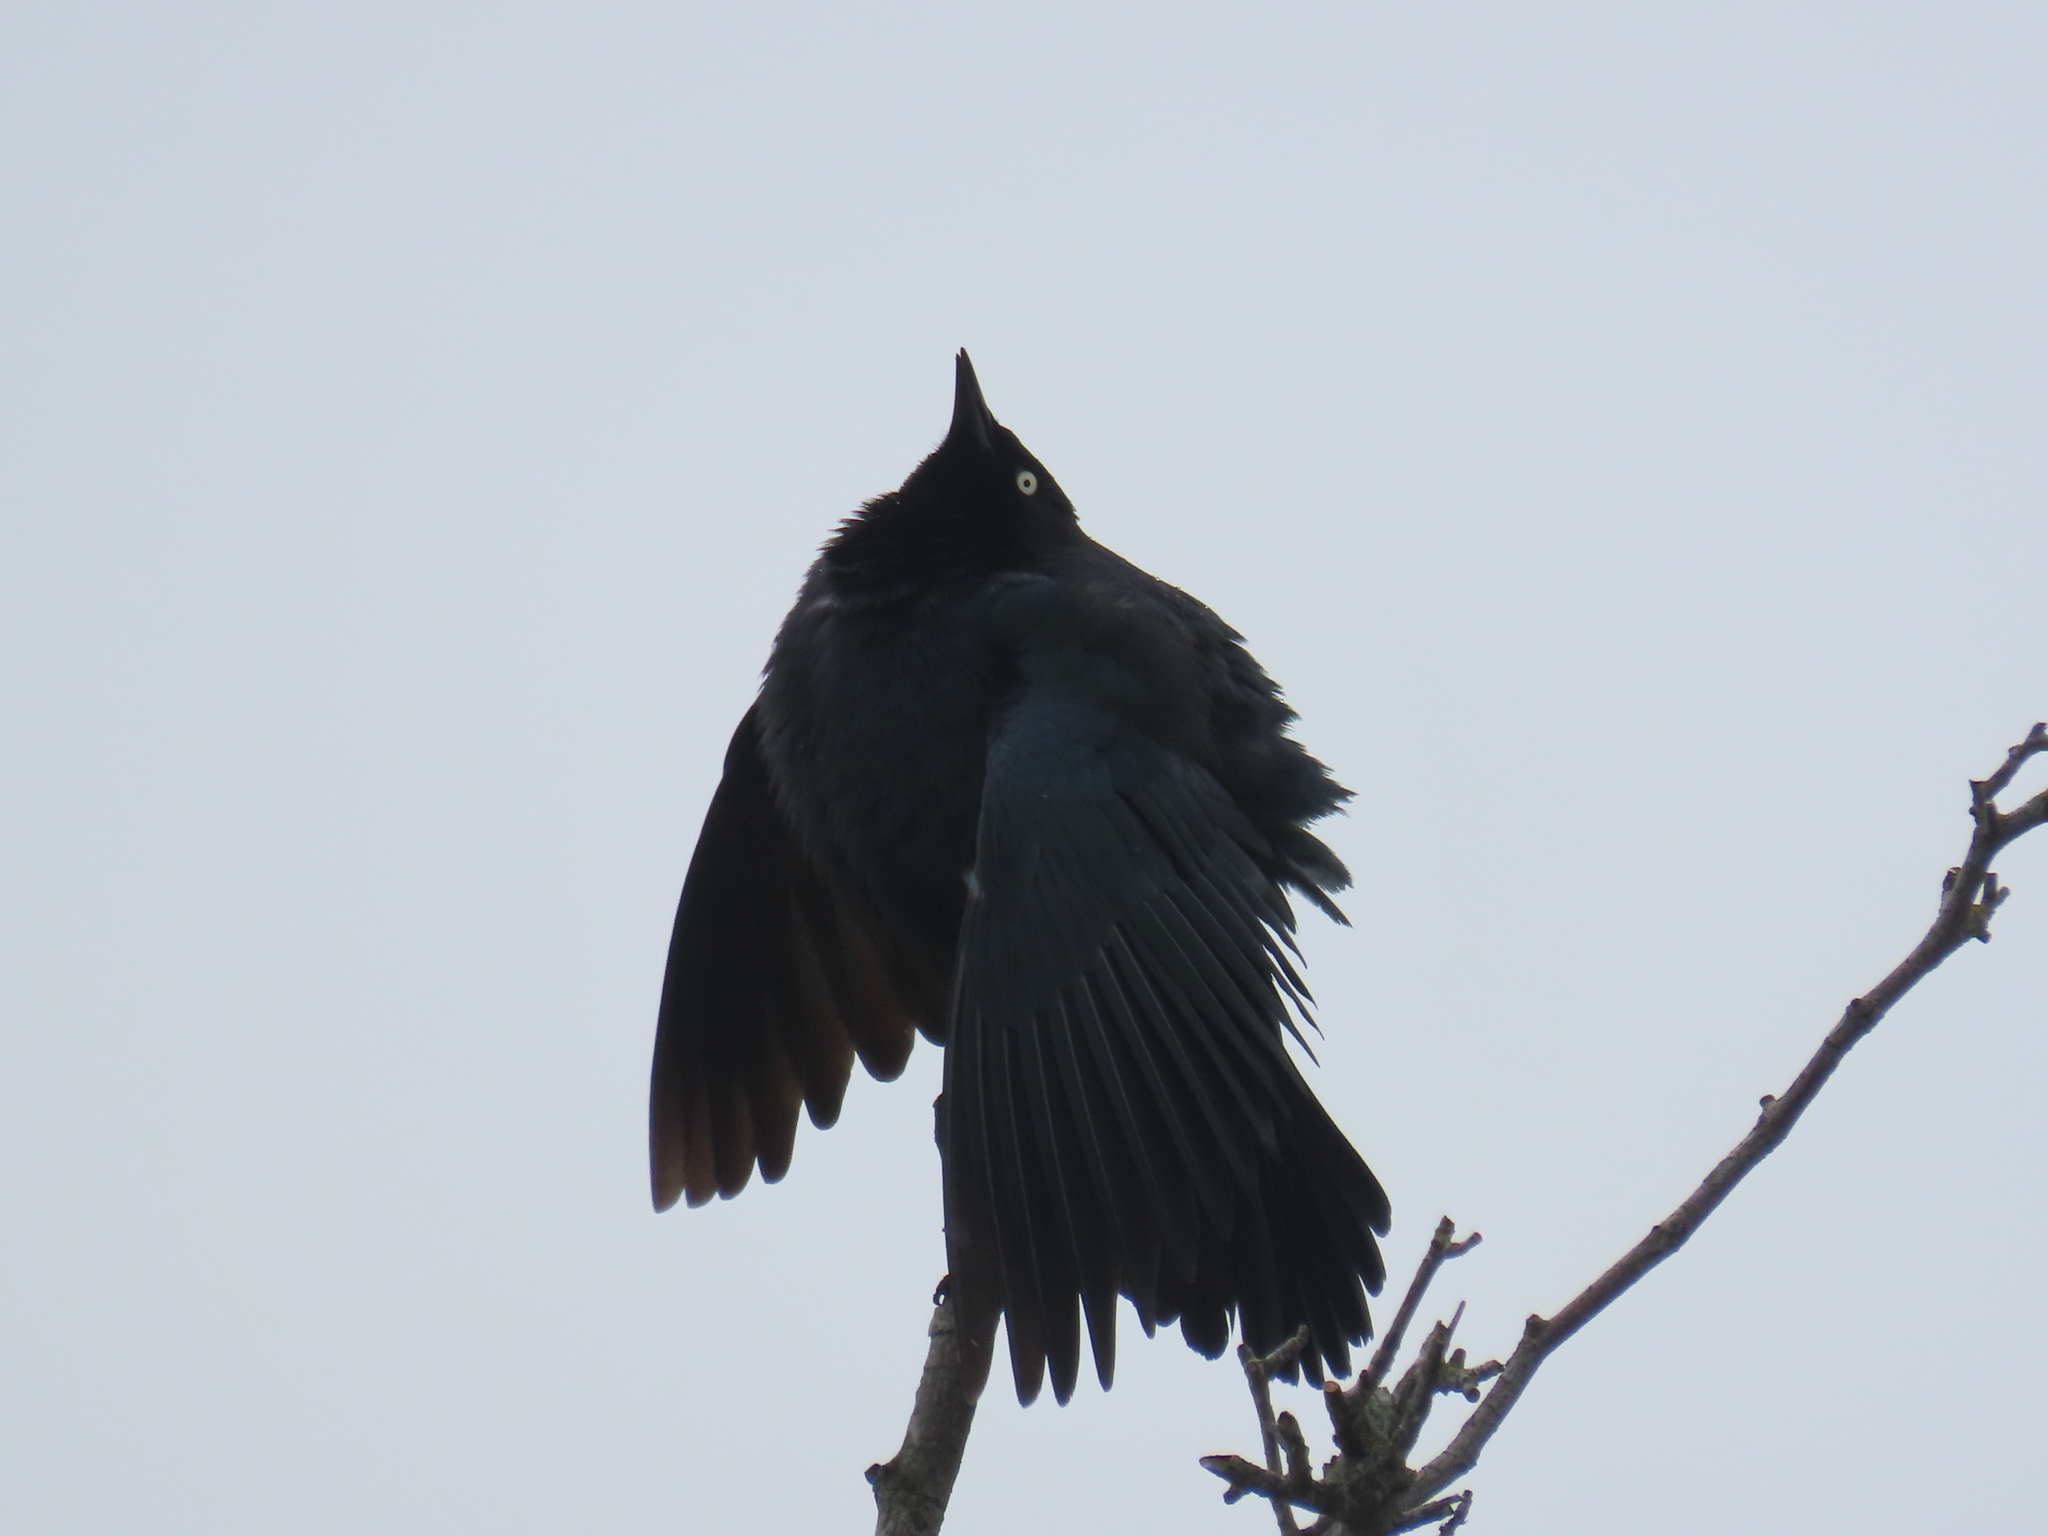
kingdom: Animalia
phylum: Chordata
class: Aves
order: Passeriformes
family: Icteridae
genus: Euphagus
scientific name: Euphagus cyanocephalus
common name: Brewer's blackbird
